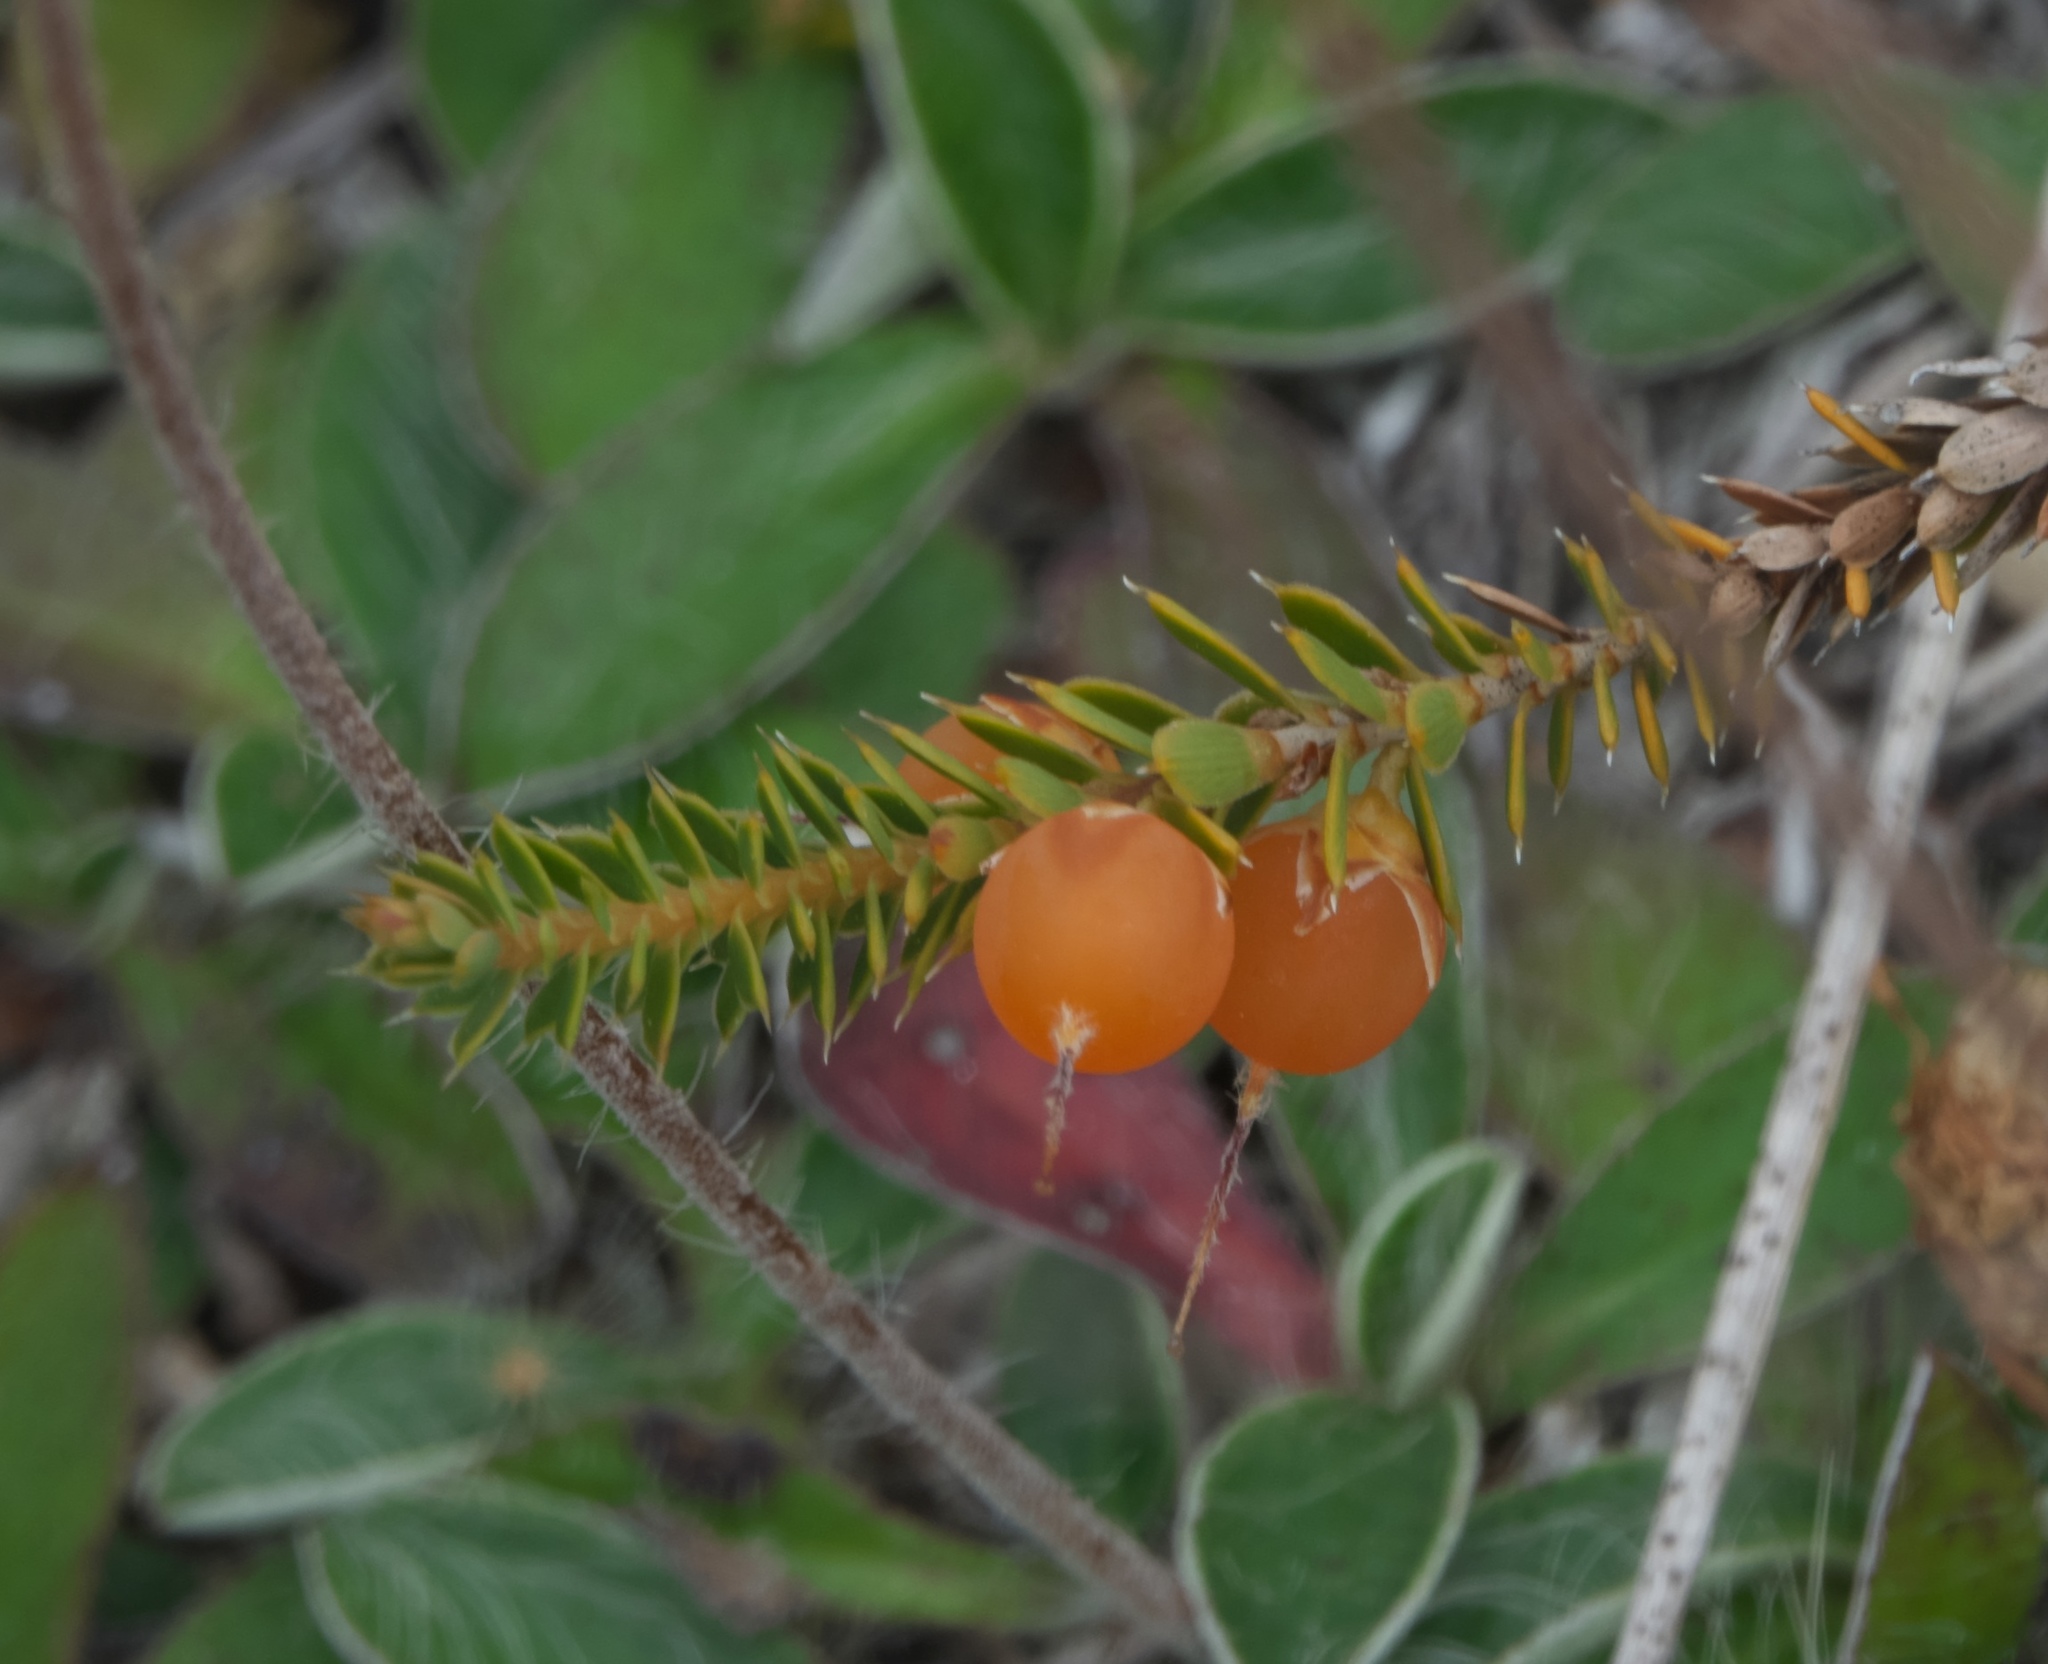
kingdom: Plantae
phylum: Tracheophyta
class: Magnoliopsida
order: Ericales
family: Ericaceae
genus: Styphelia
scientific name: Styphelia nesophila
